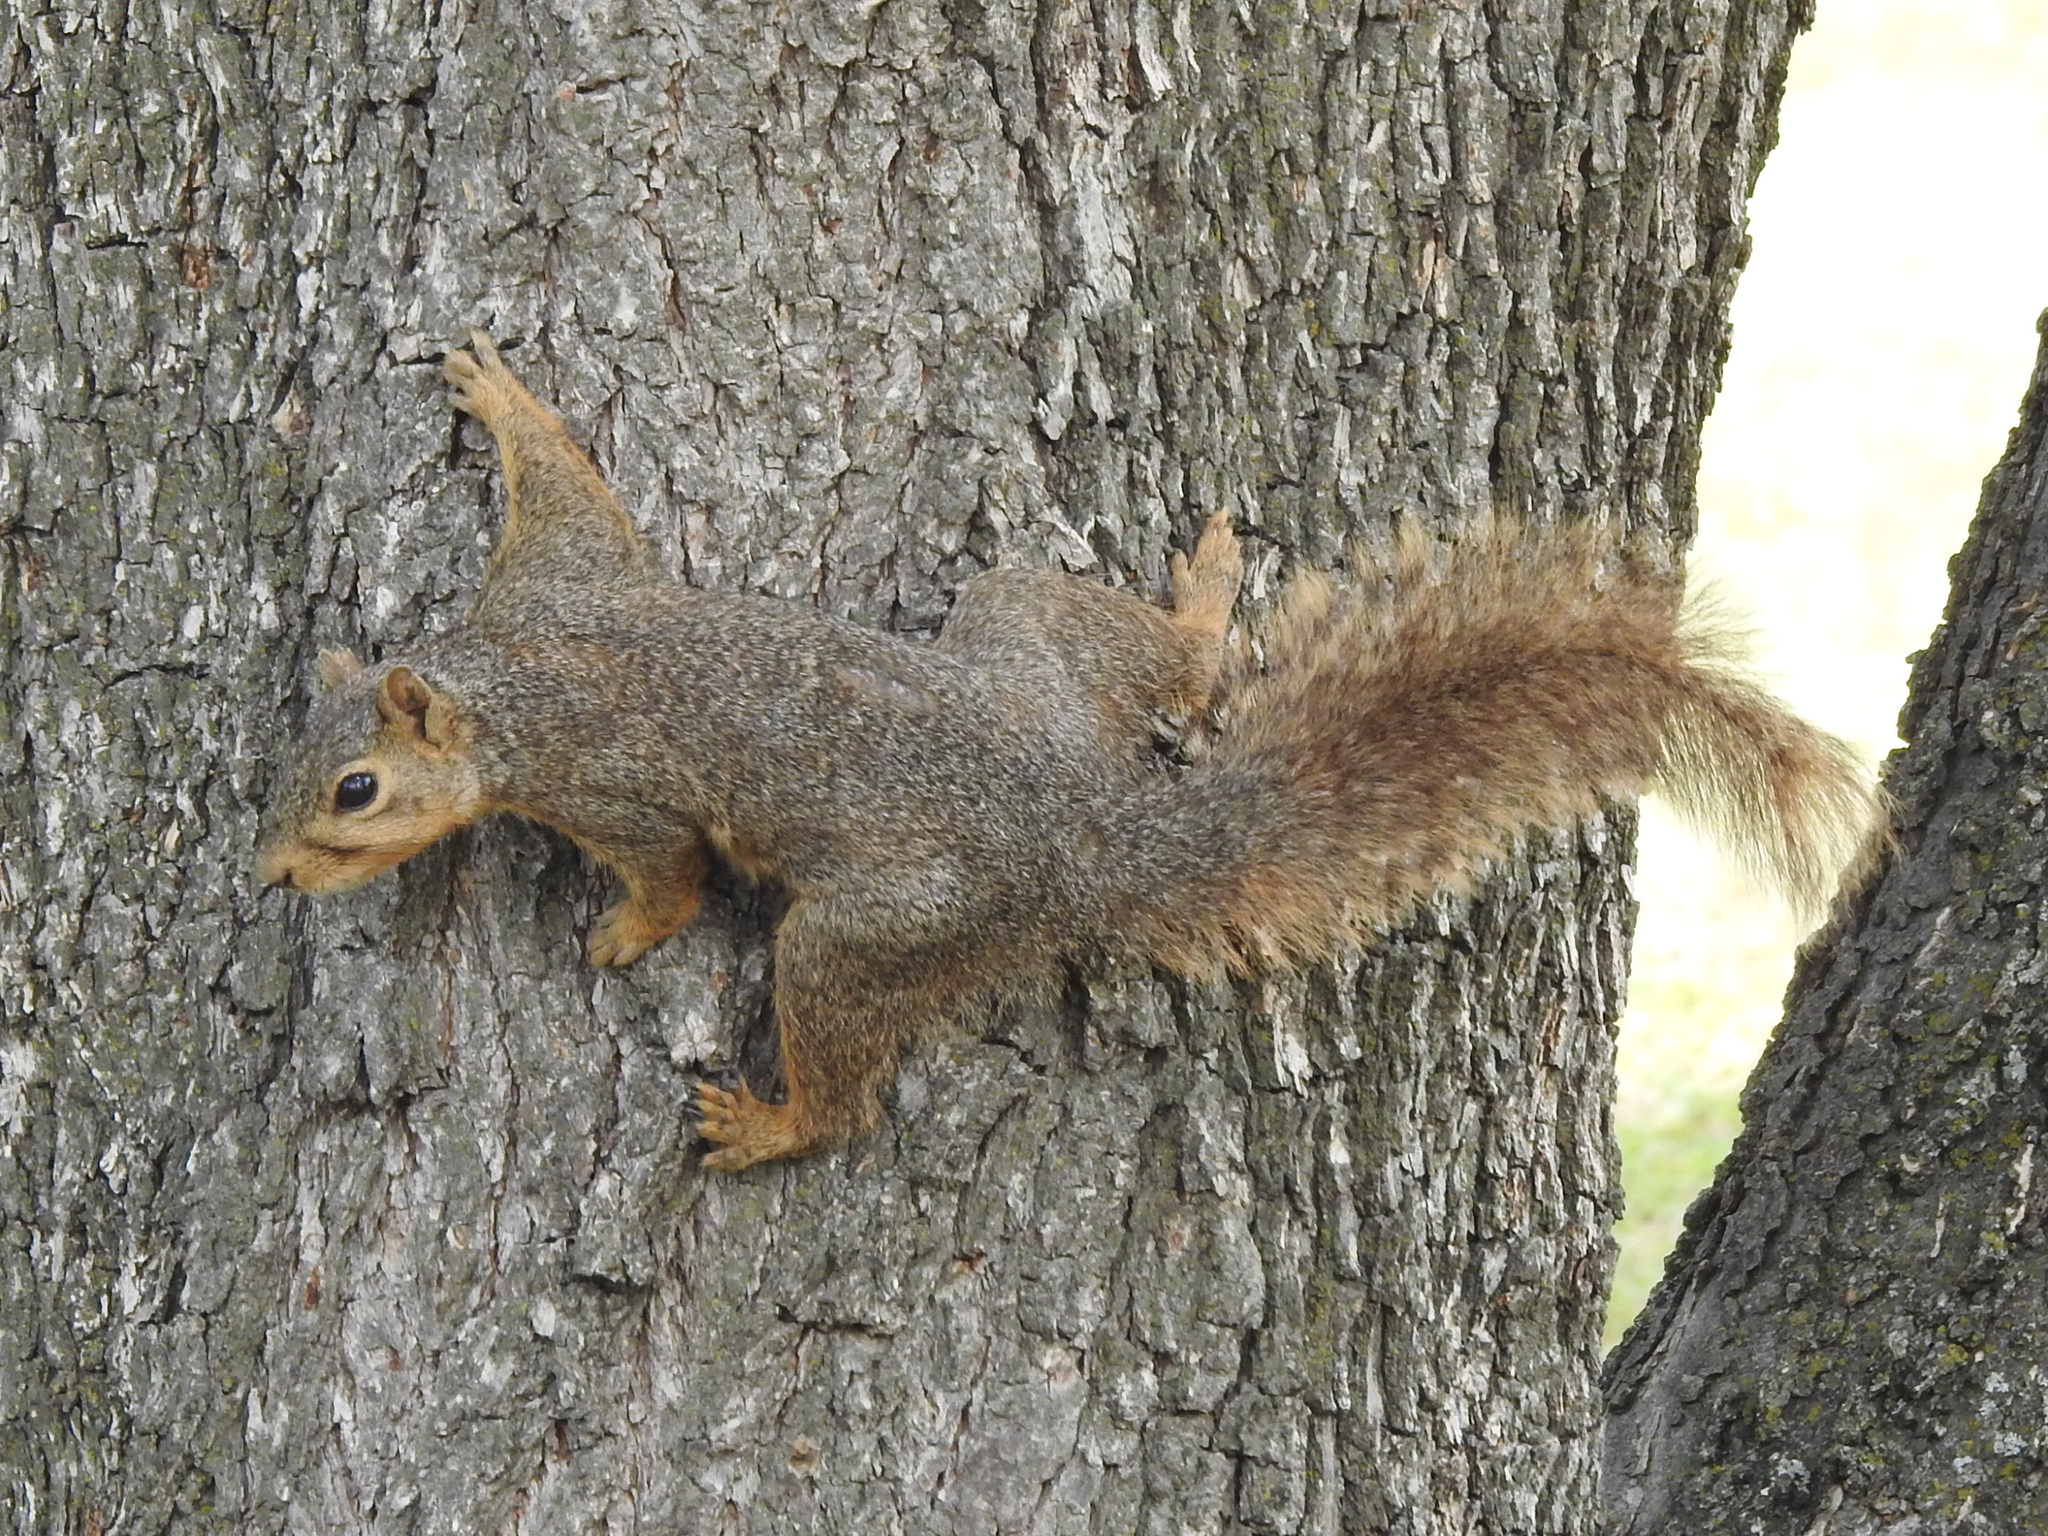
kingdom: Animalia
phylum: Chordata
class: Mammalia
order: Rodentia
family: Sciuridae
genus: Sciurus
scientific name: Sciurus niger
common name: Fox squirrel
